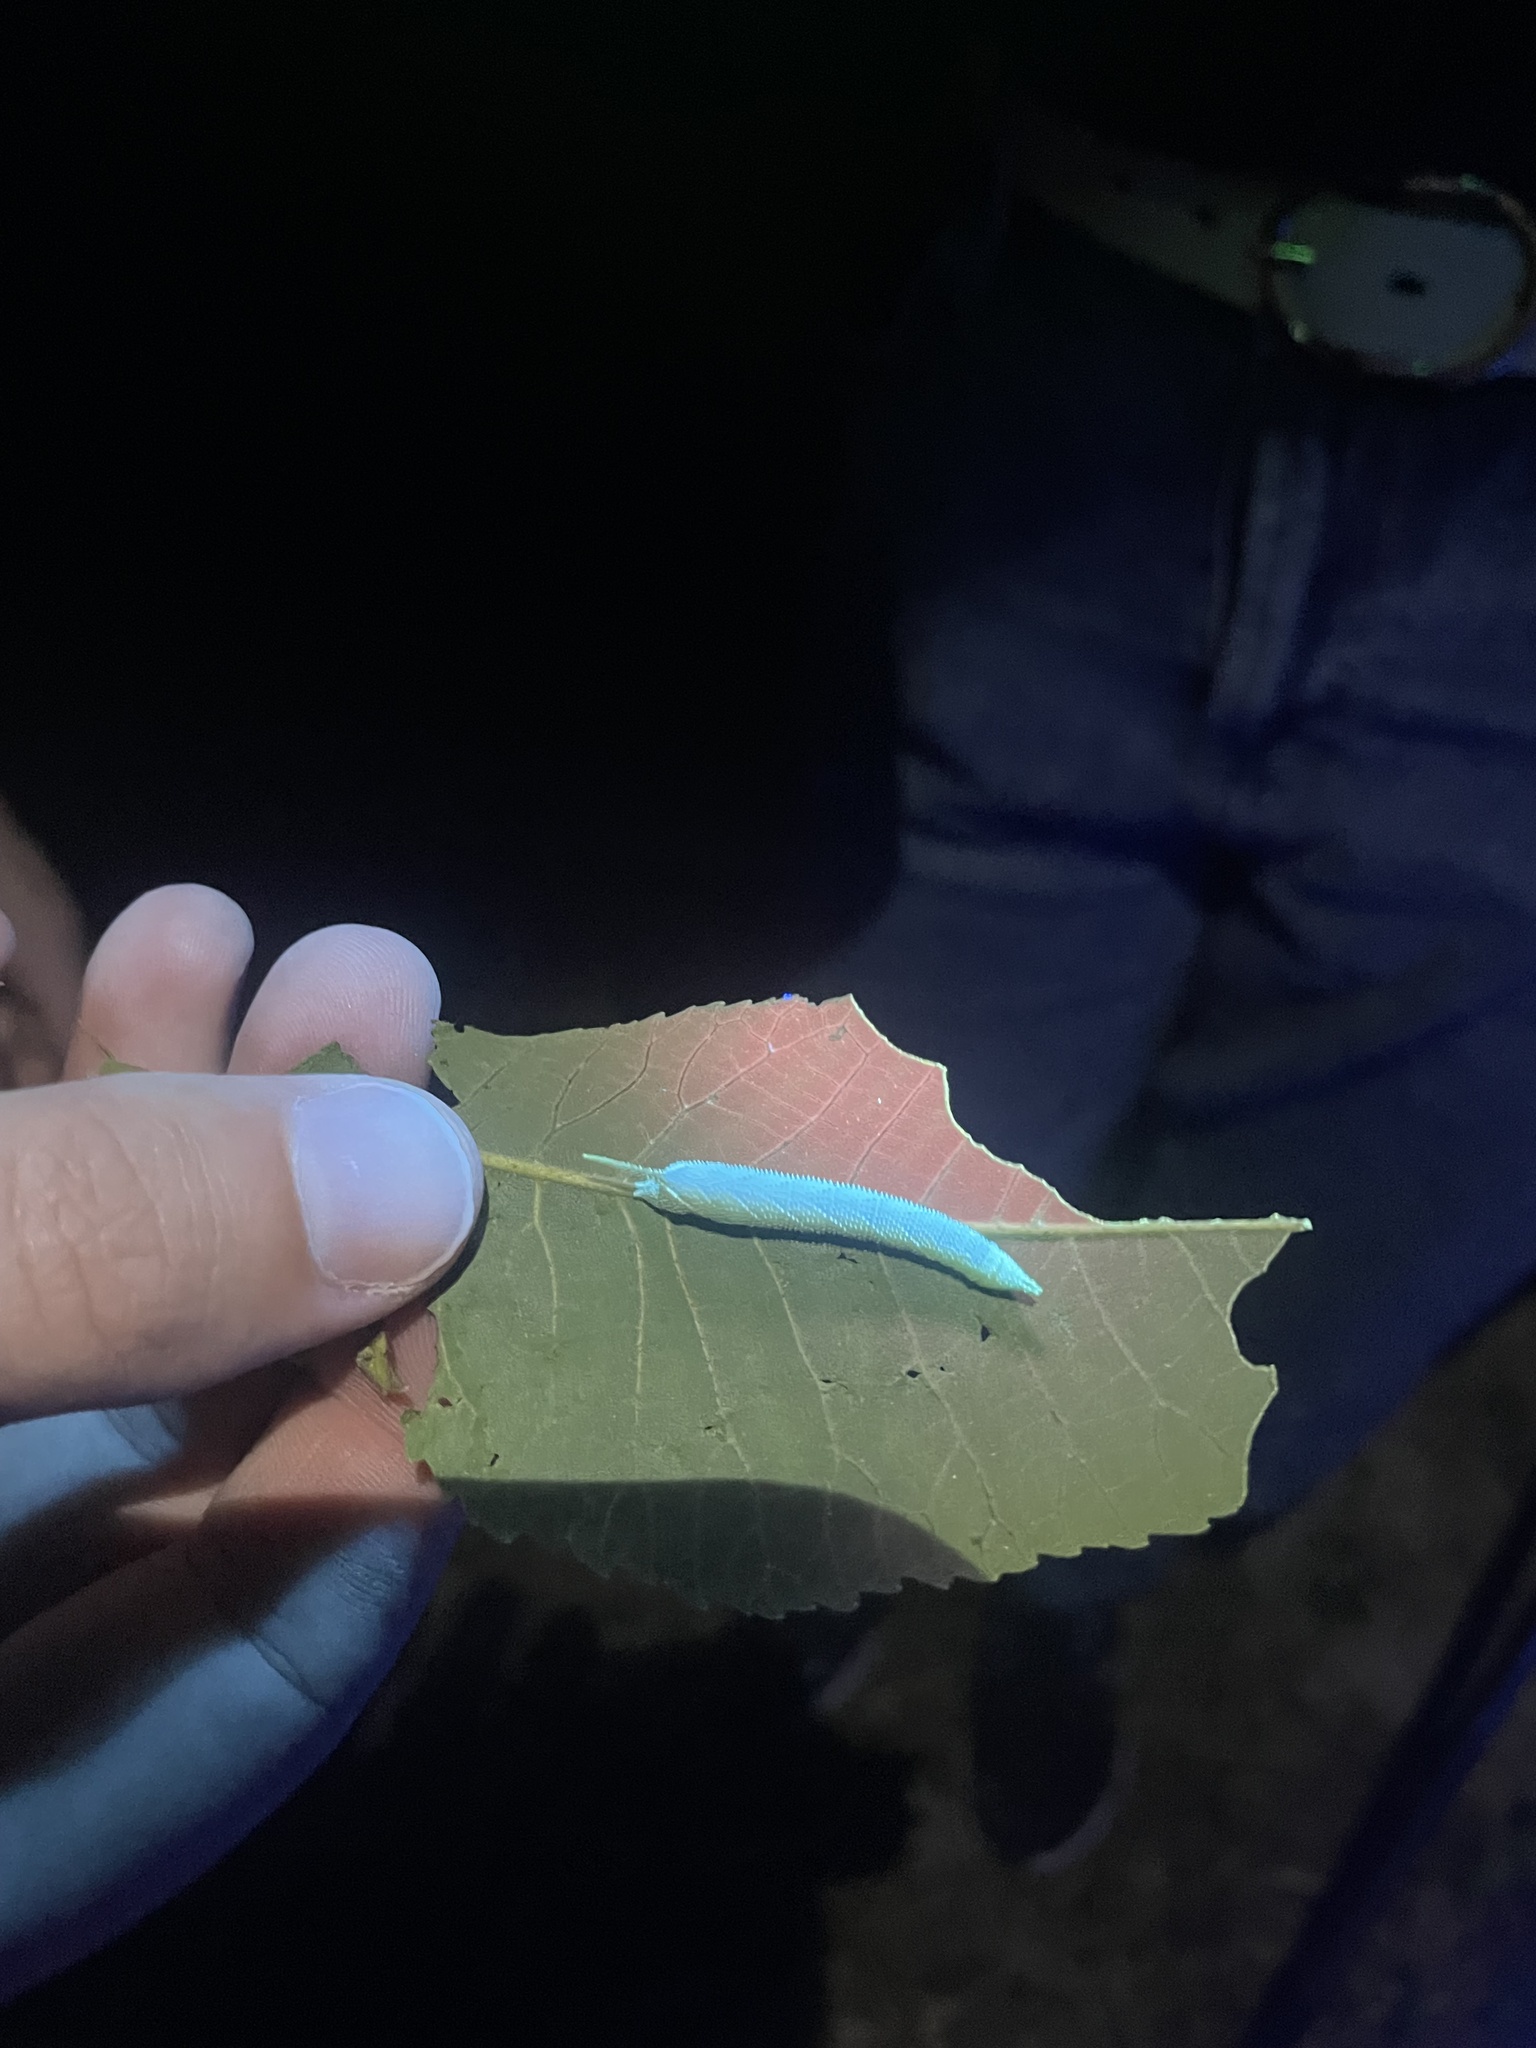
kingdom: Animalia
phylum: Arthropoda
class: Insecta
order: Lepidoptera
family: Sphingidae
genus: Amorpha
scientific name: Amorpha juglandis
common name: Walnut sphinx
